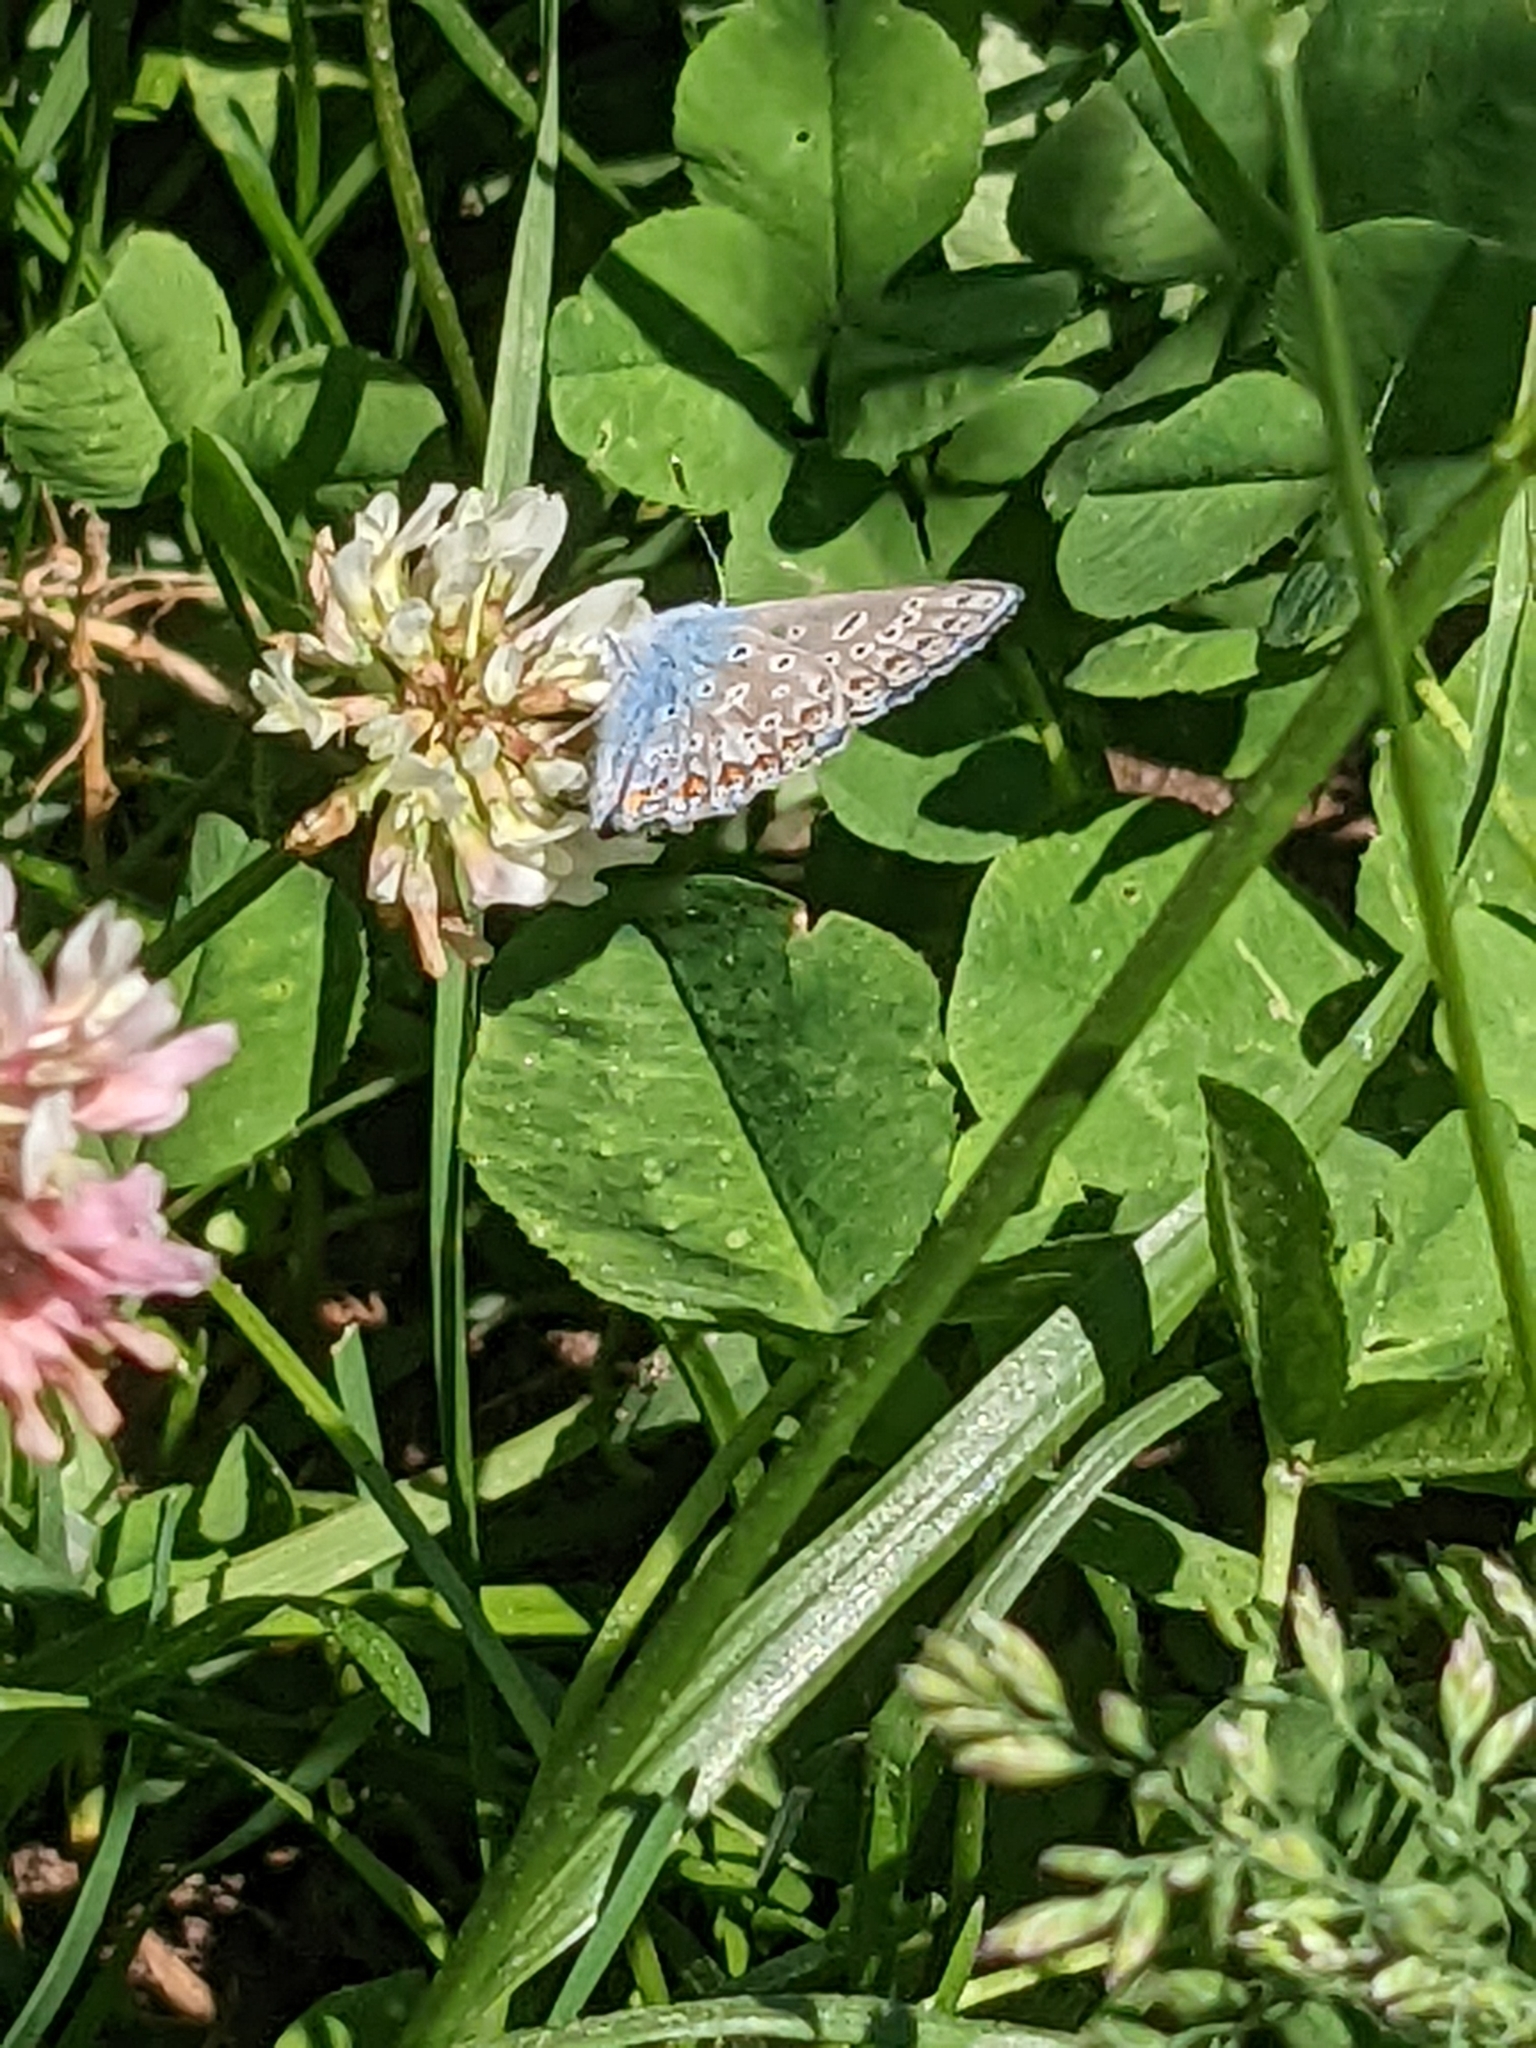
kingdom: Animalia
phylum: Arthropoda
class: Insecta
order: Lepidoptera
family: Lycaenidae
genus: Polyommatus
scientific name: Polyommatus icarus
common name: Common blue
